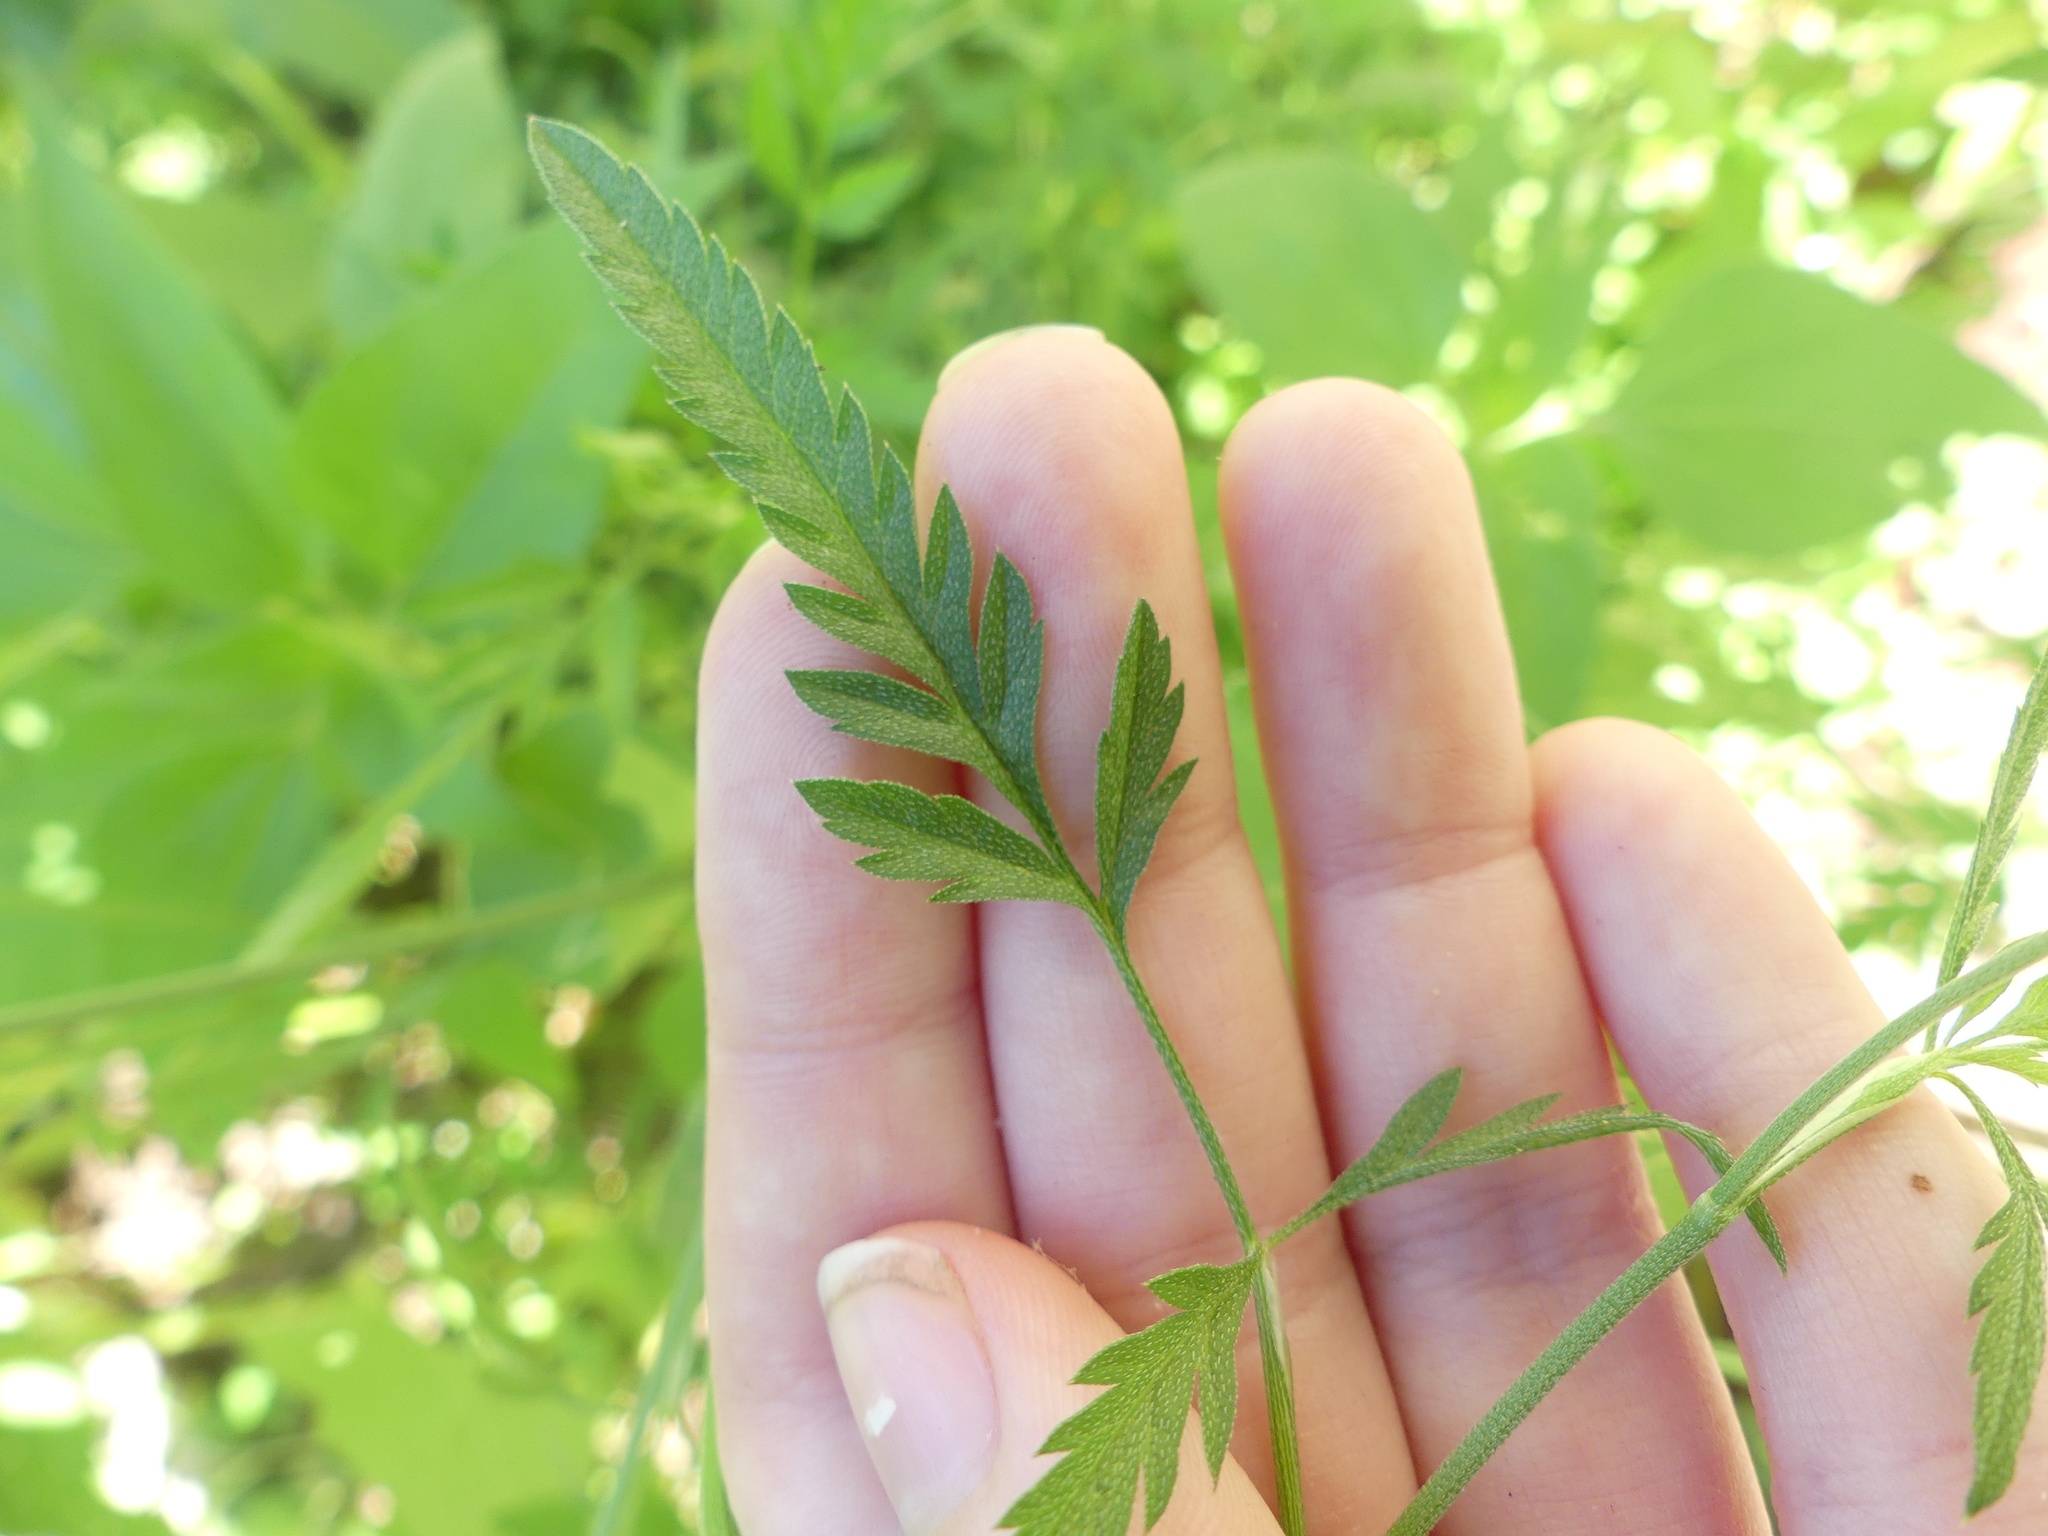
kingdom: Plantae
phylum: Tracheophyta
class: Magnoliopsida
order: Apiales
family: Apiaceae
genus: Torilis
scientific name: Torilis arvensis
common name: Spreading hedge-parsley
